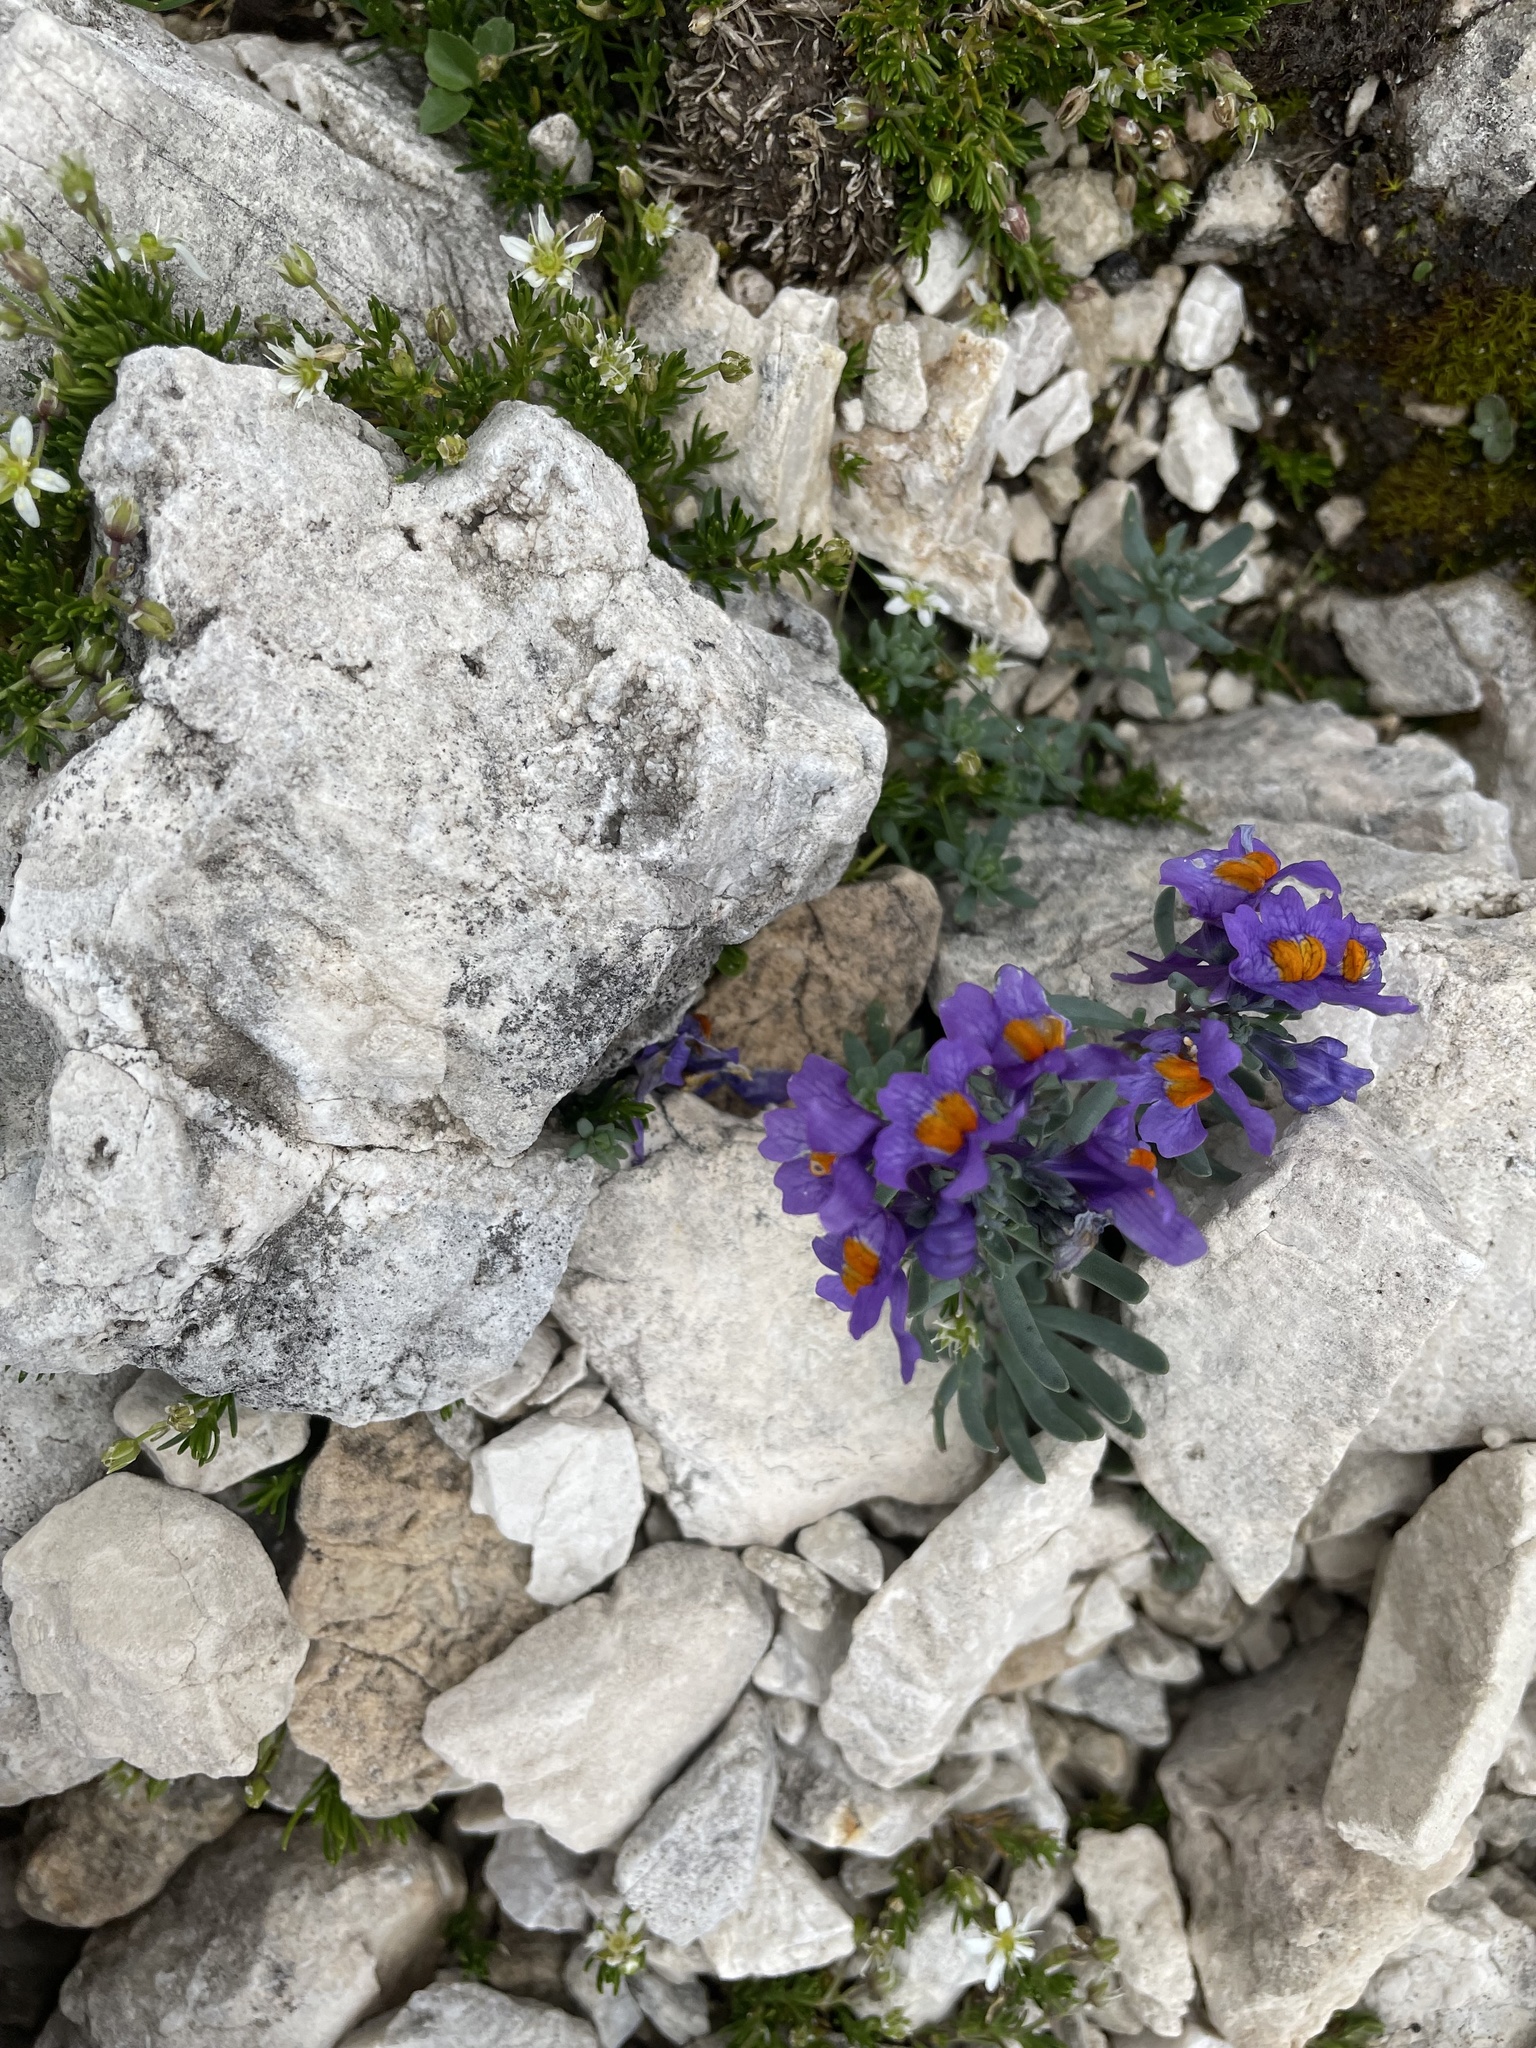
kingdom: Plantae
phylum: Tracheophyta
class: Magnoliopsida
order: Lamiales
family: Plantaginaceae
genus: Linaria
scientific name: Linaria alpina
